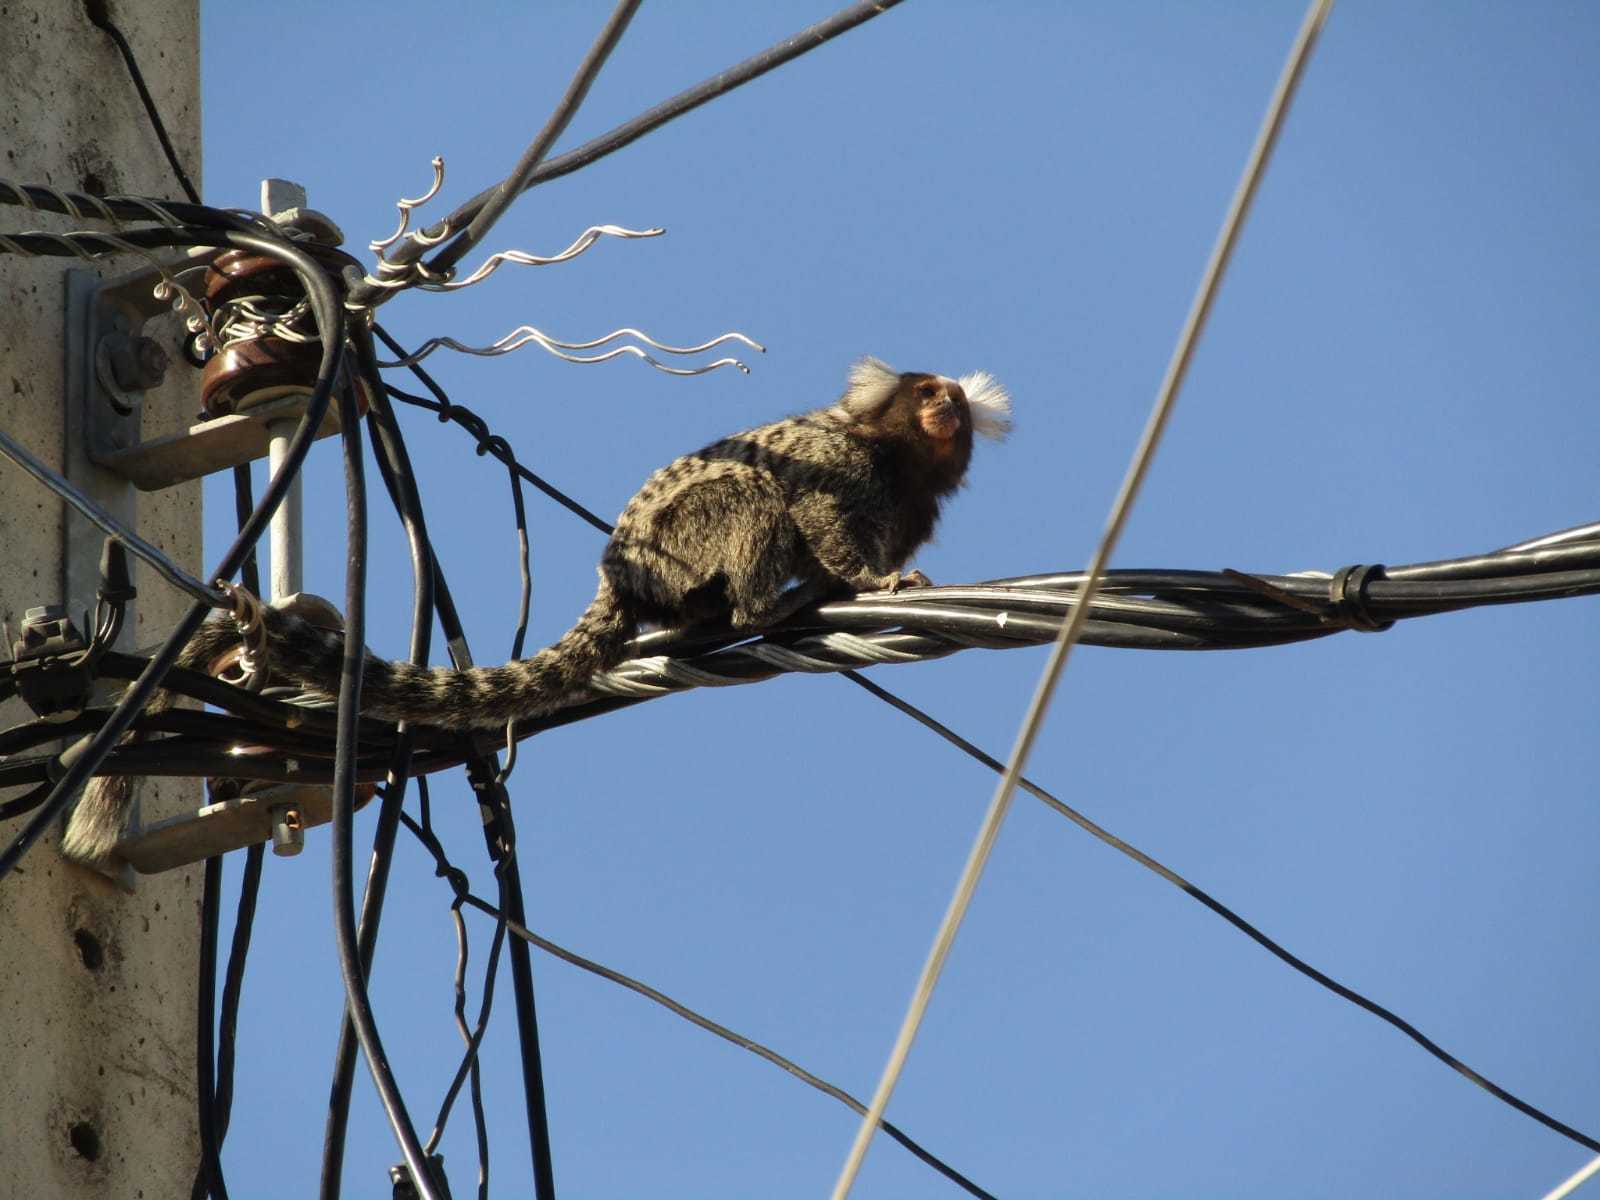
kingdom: Animalia
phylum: Chordata
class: Mammalia
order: Primates
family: Callitrichidae
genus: Callithrix
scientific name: Callithrix jacchus
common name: Common marmoset
